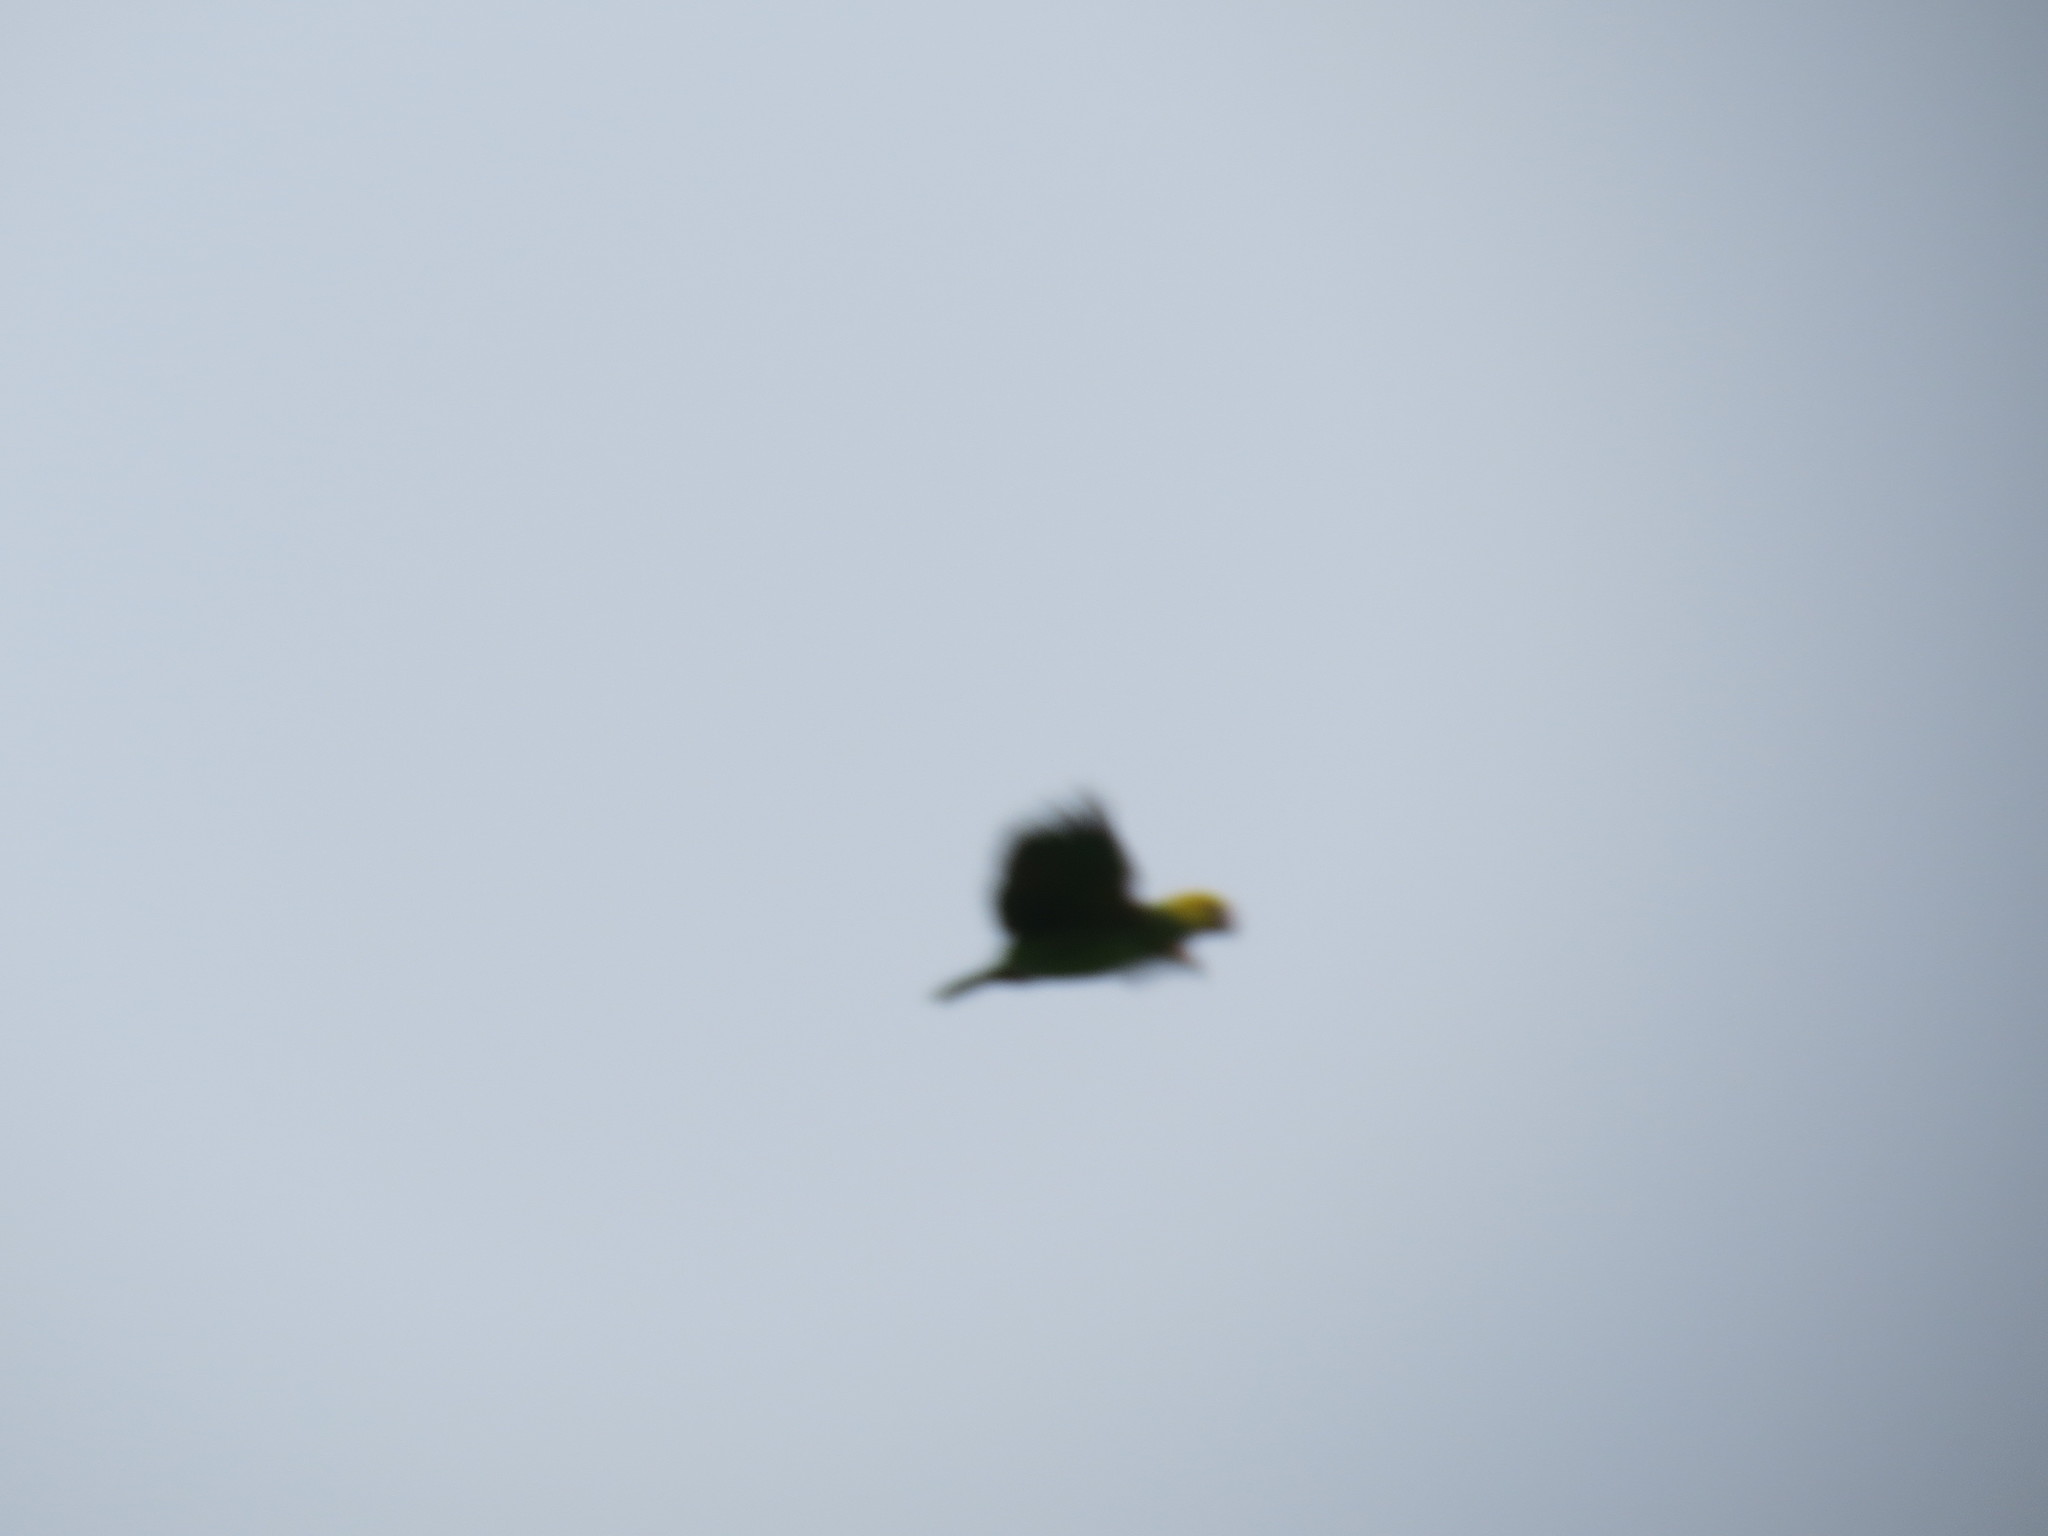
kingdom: Animalia
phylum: Chordata
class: Aves
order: Psittaciformes
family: Psittacidae
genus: Amazona
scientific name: Amazona oratrix
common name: Yellow-headed amazon
